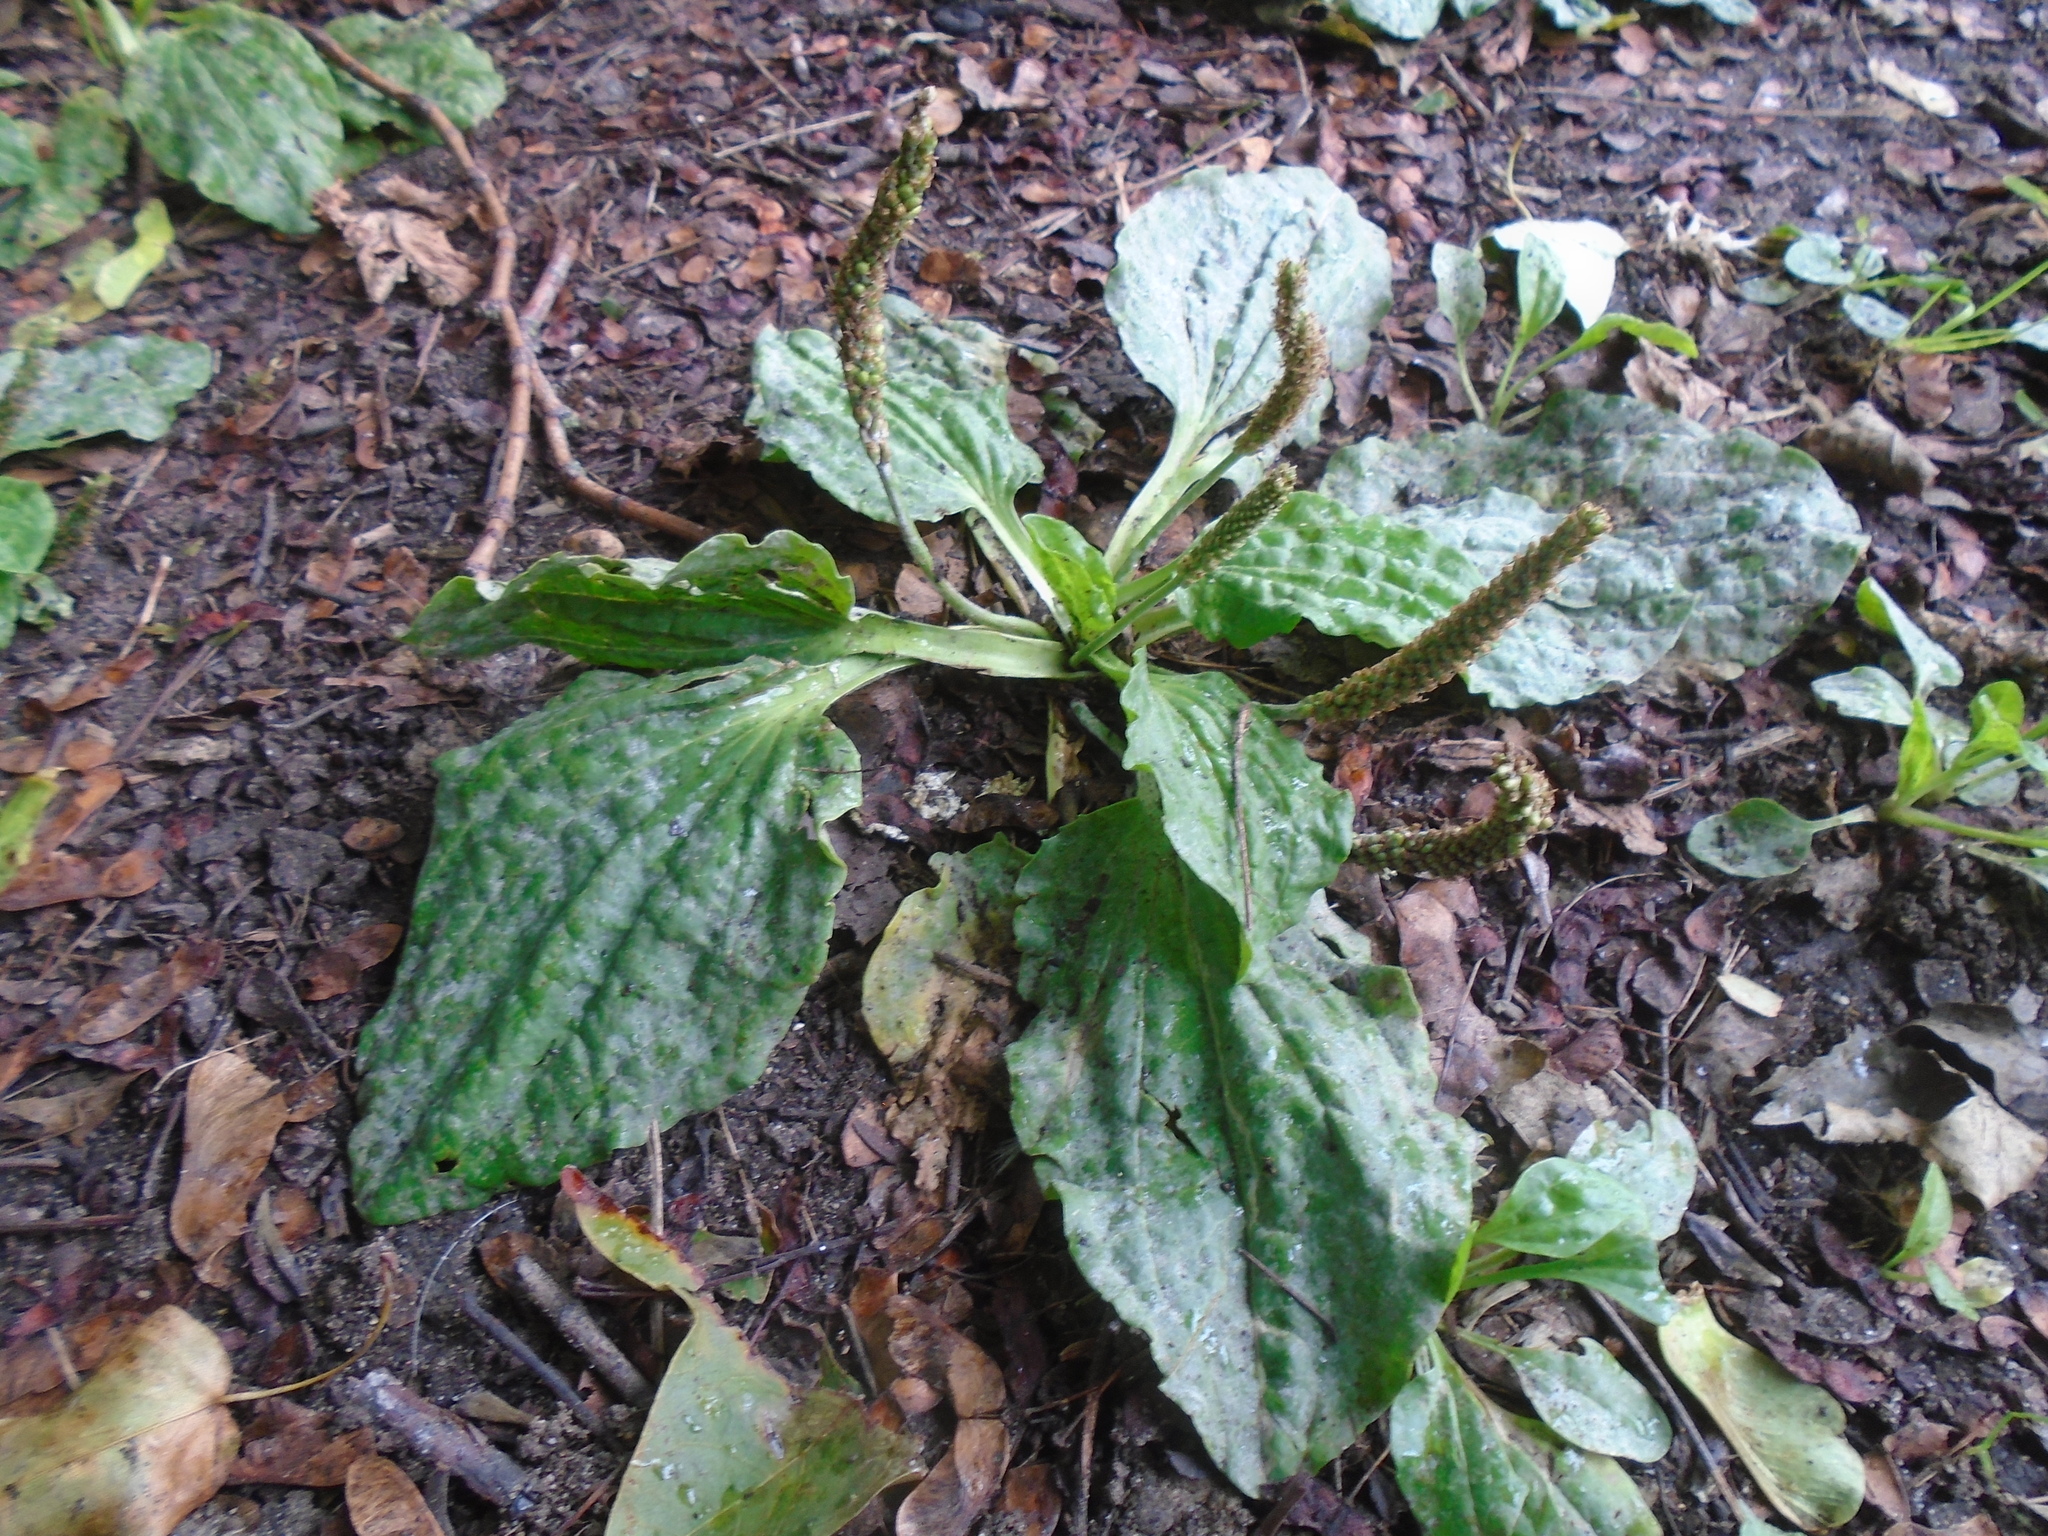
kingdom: Plantae
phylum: Tracheophyta
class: Magnoliopsida
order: Lamiales
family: Plantaginaceae
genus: Plantago
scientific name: Plantago major
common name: Common plantain
